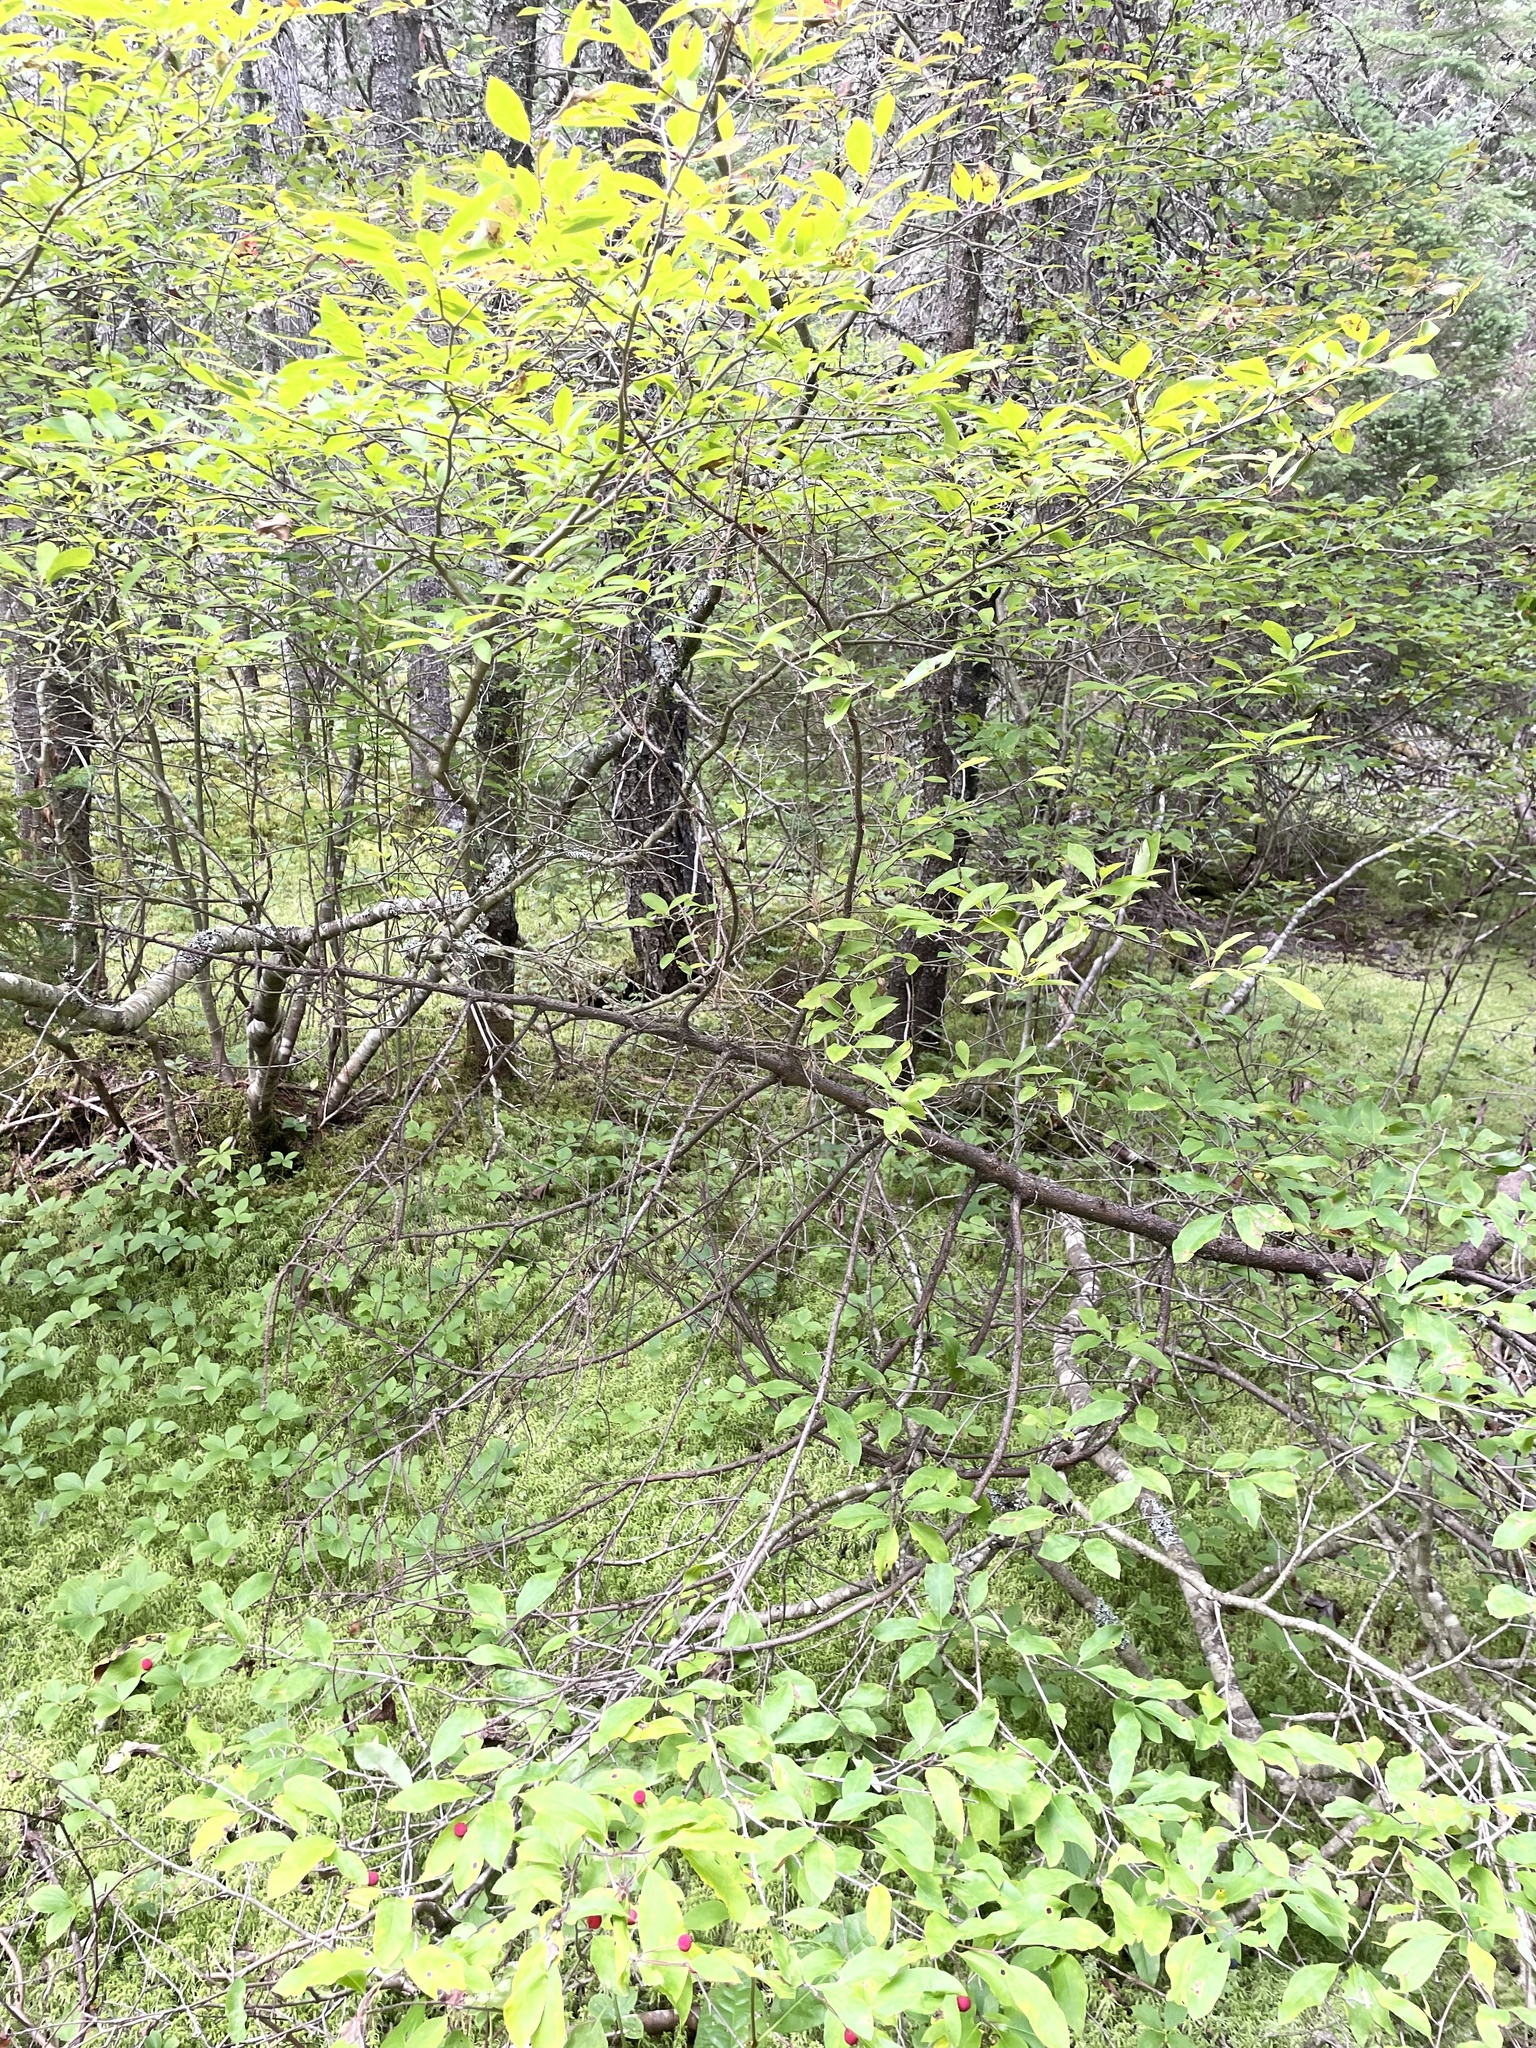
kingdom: Plantae
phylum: Tracheophyta
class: Magnoliopsida
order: Aquifoliales
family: Aquifoliaceae
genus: Ilex
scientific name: Ilex mucronata
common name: Catberry
